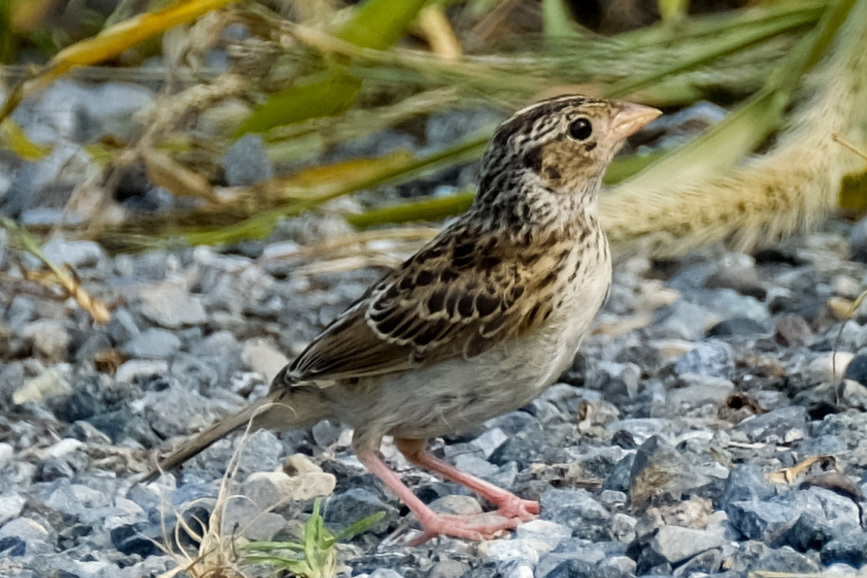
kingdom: Animalia
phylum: Chordata
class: Aves
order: Passeriformes
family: Passerellidae
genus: Ammodramus
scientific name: Ammodramus savannarum
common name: Grasshopper sparrow
